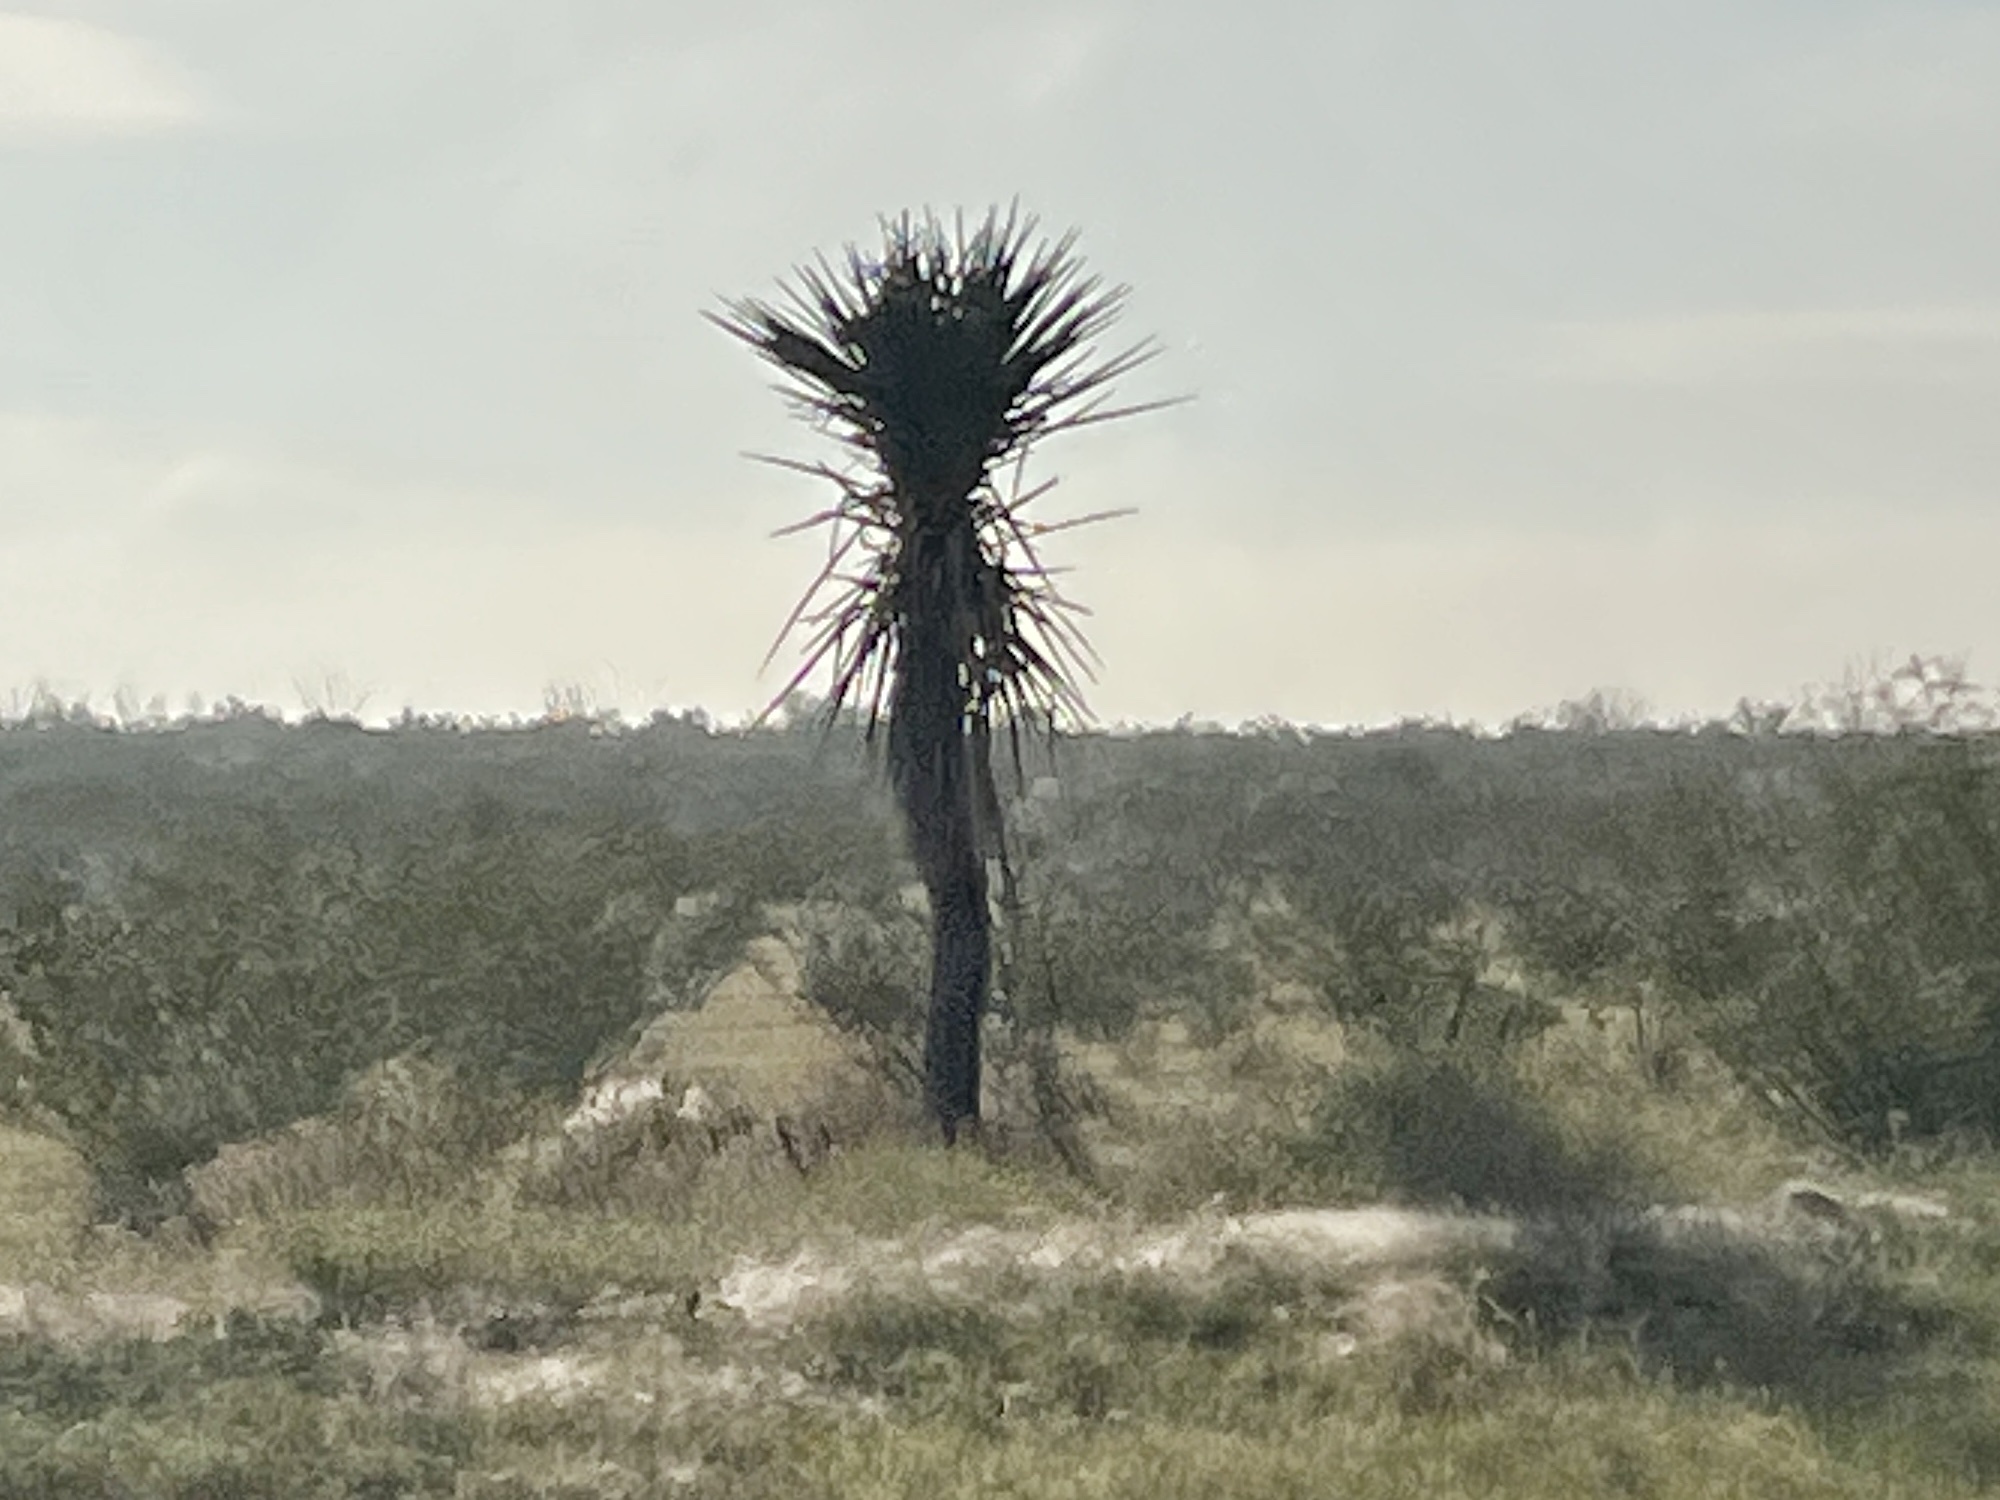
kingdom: Plantae
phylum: Tracheophyta
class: Liliopsida
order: Asparagales
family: Asparagaceae
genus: Yucca
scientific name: Yucca treculiana
